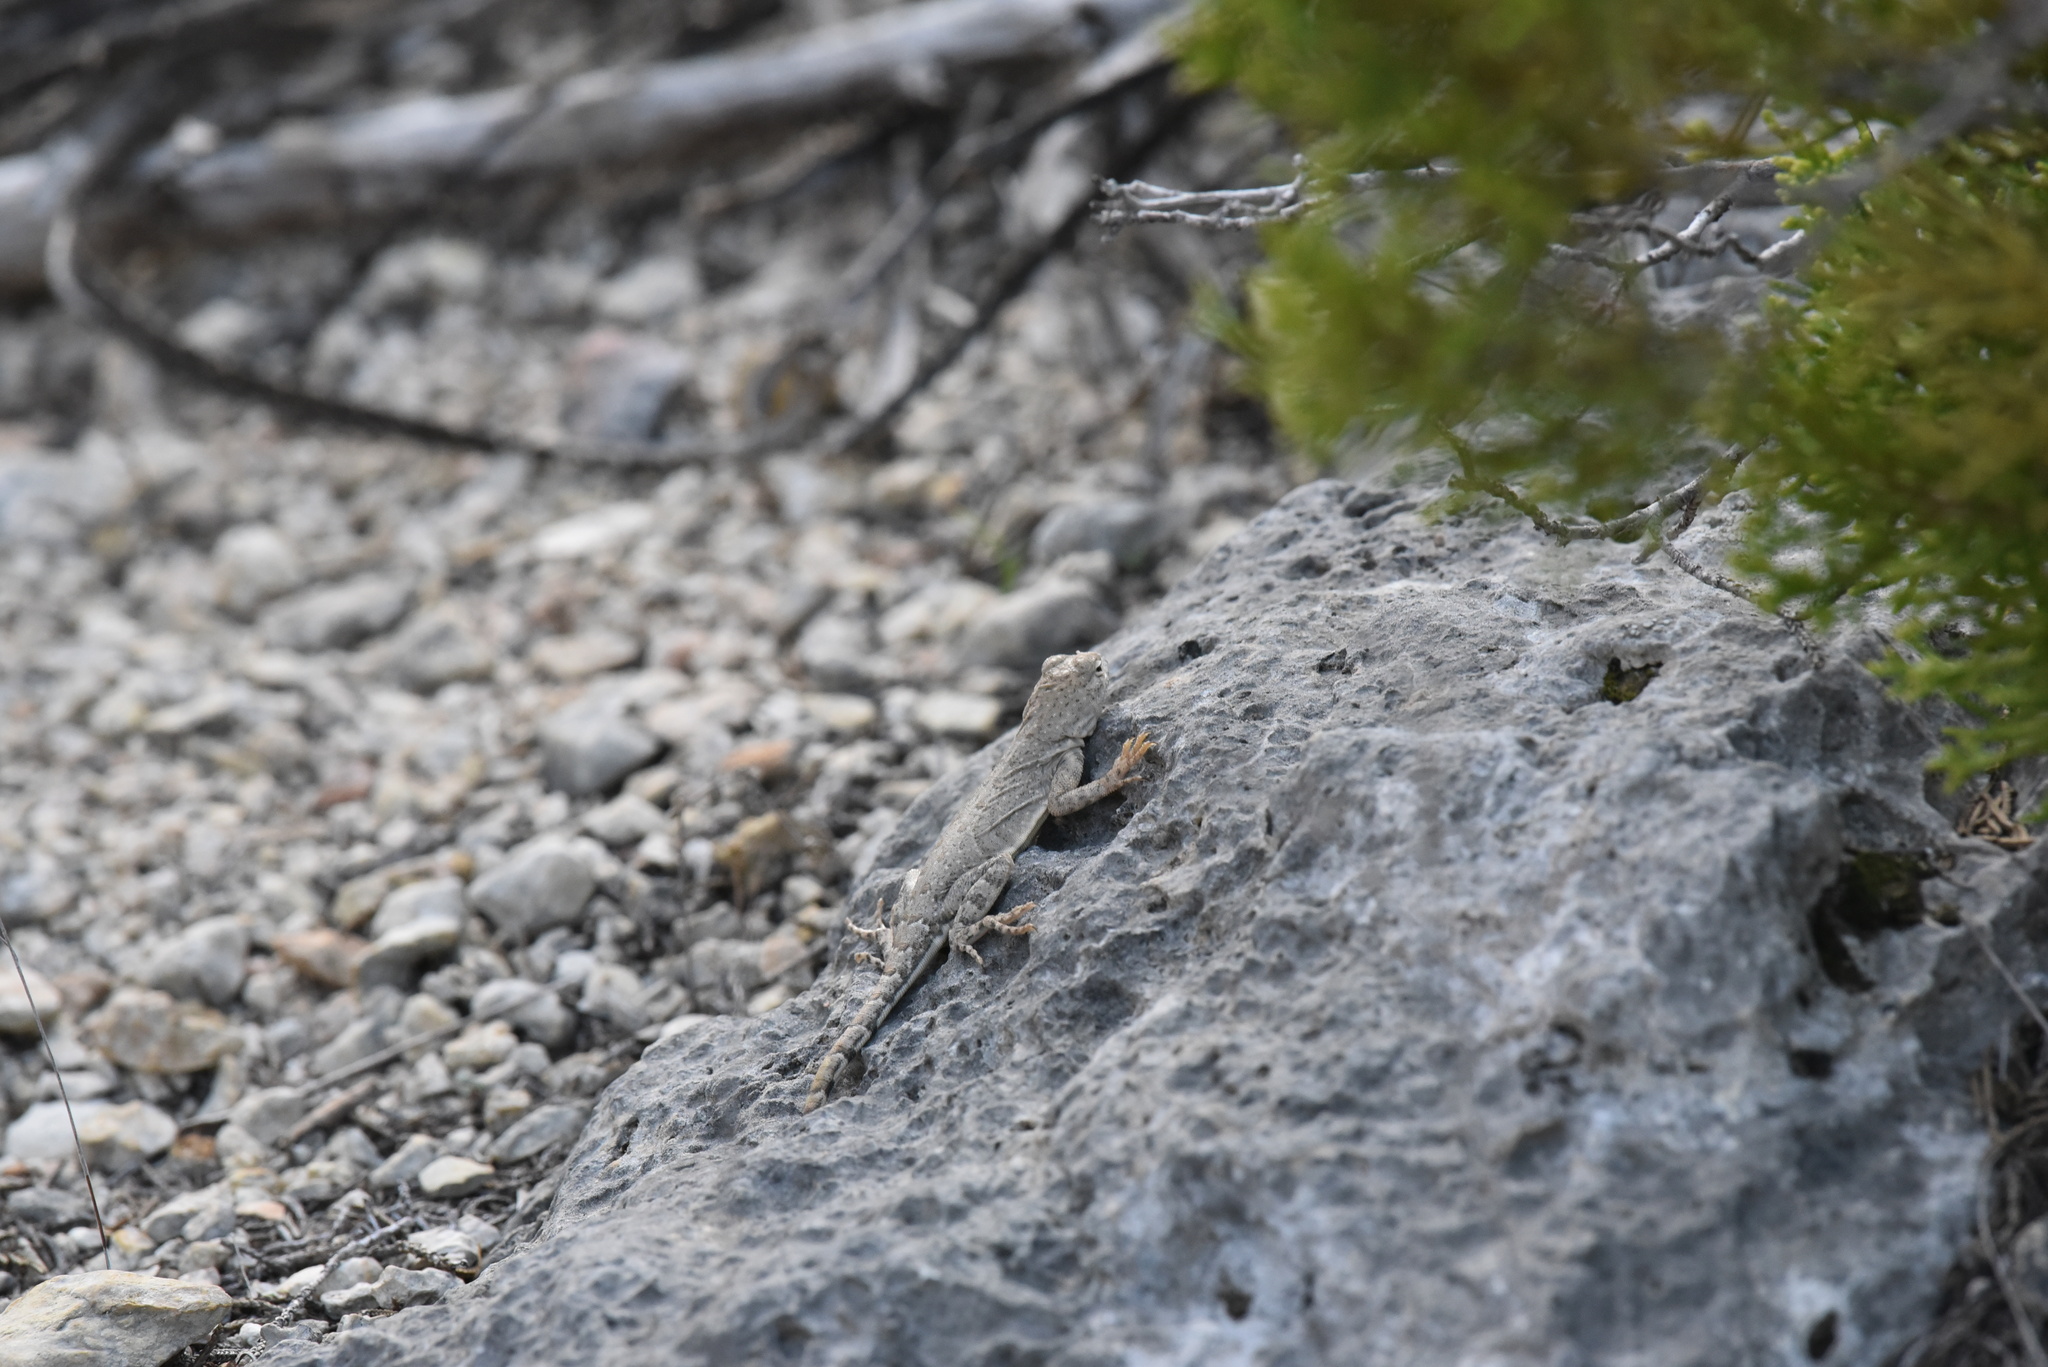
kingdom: Animalia
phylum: Chordata
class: Squamata
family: Phrynosomatidae
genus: Cophosaurus
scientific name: Cophosaurus texanus
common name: Greater earless lizard
